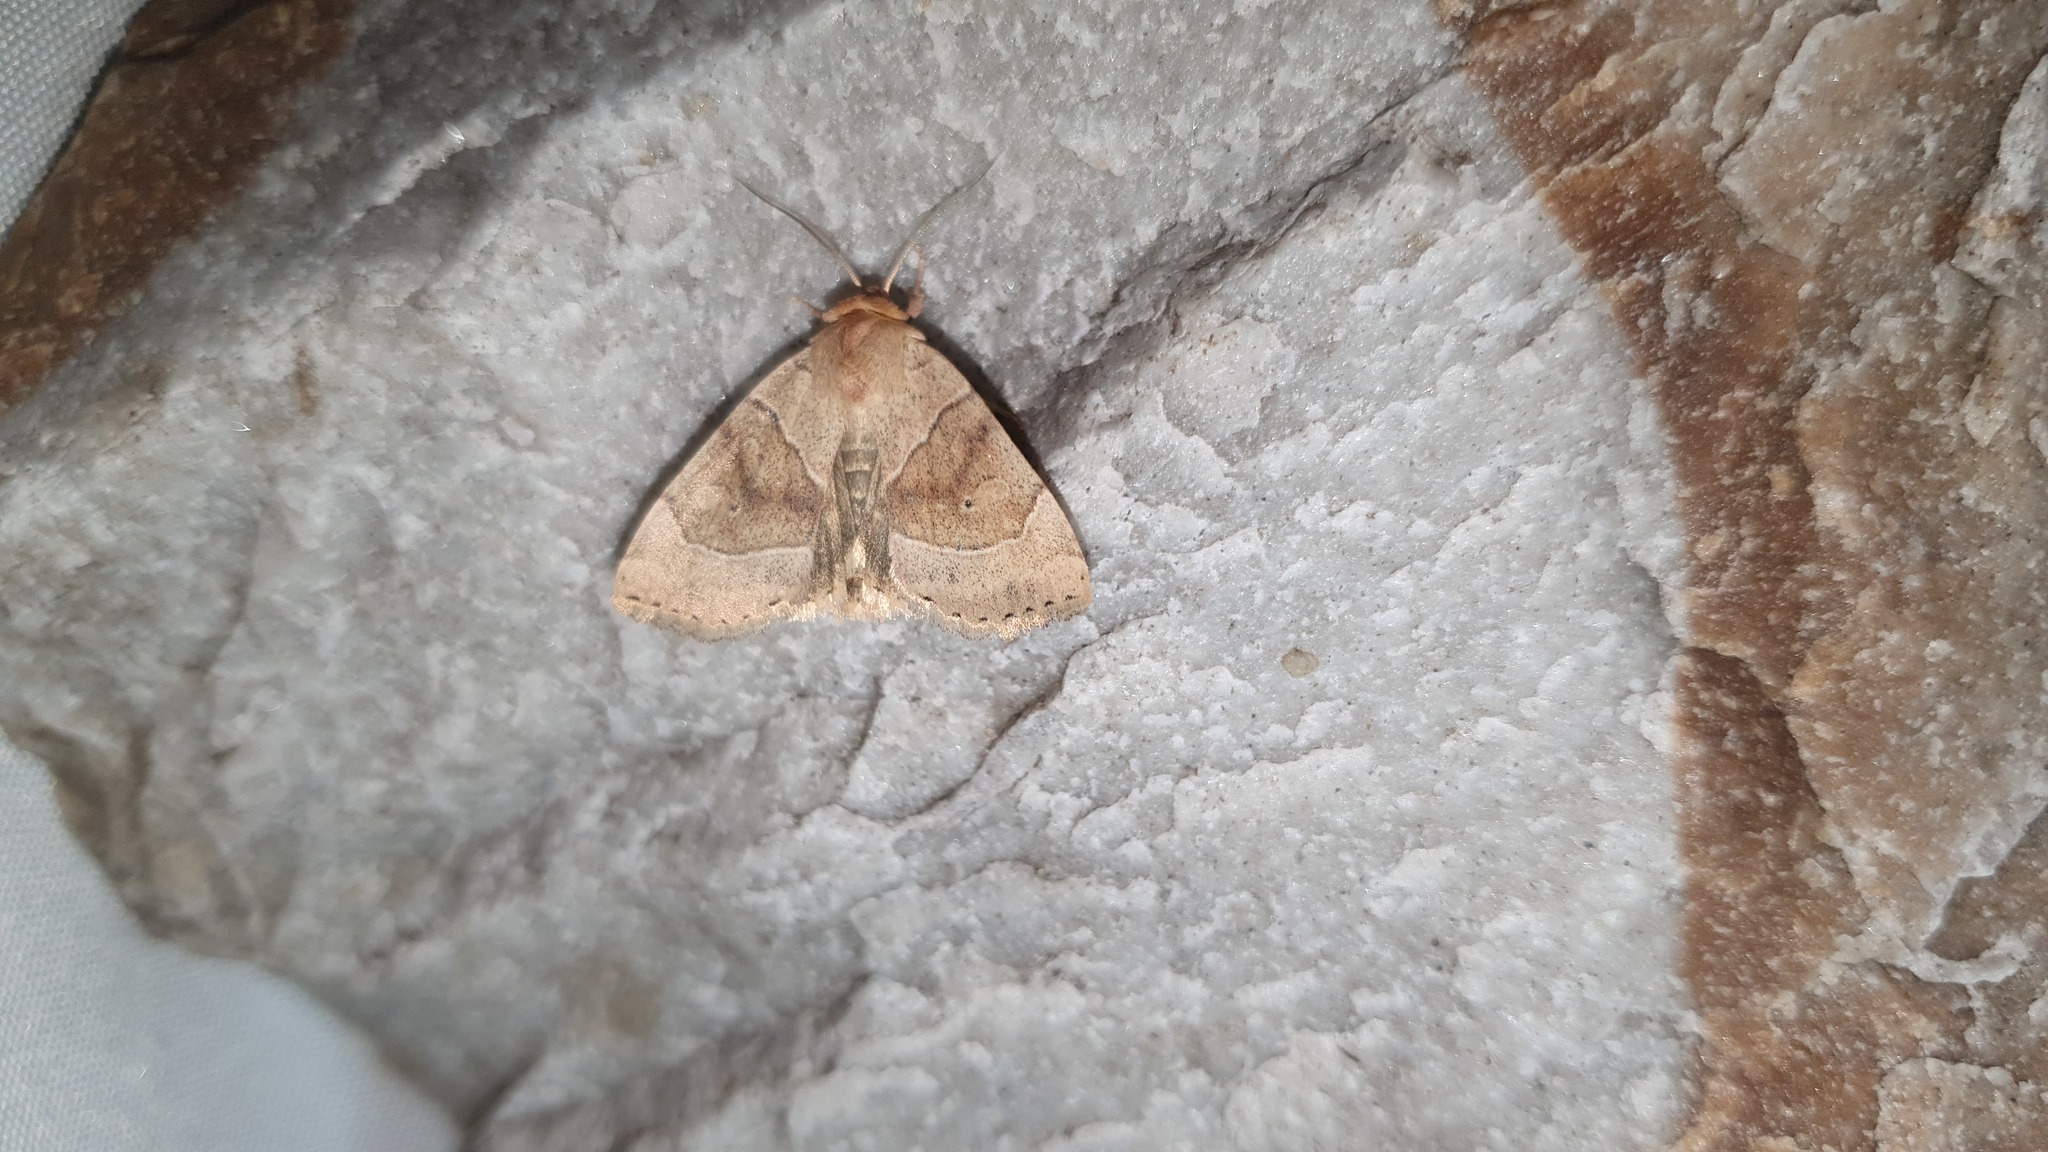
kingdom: Animalia
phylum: Arthropoda
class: Insecta
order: Lepidoptera
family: Noctuidae
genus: Cosmia
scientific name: Cosmia trapezina
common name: Dun-bar
